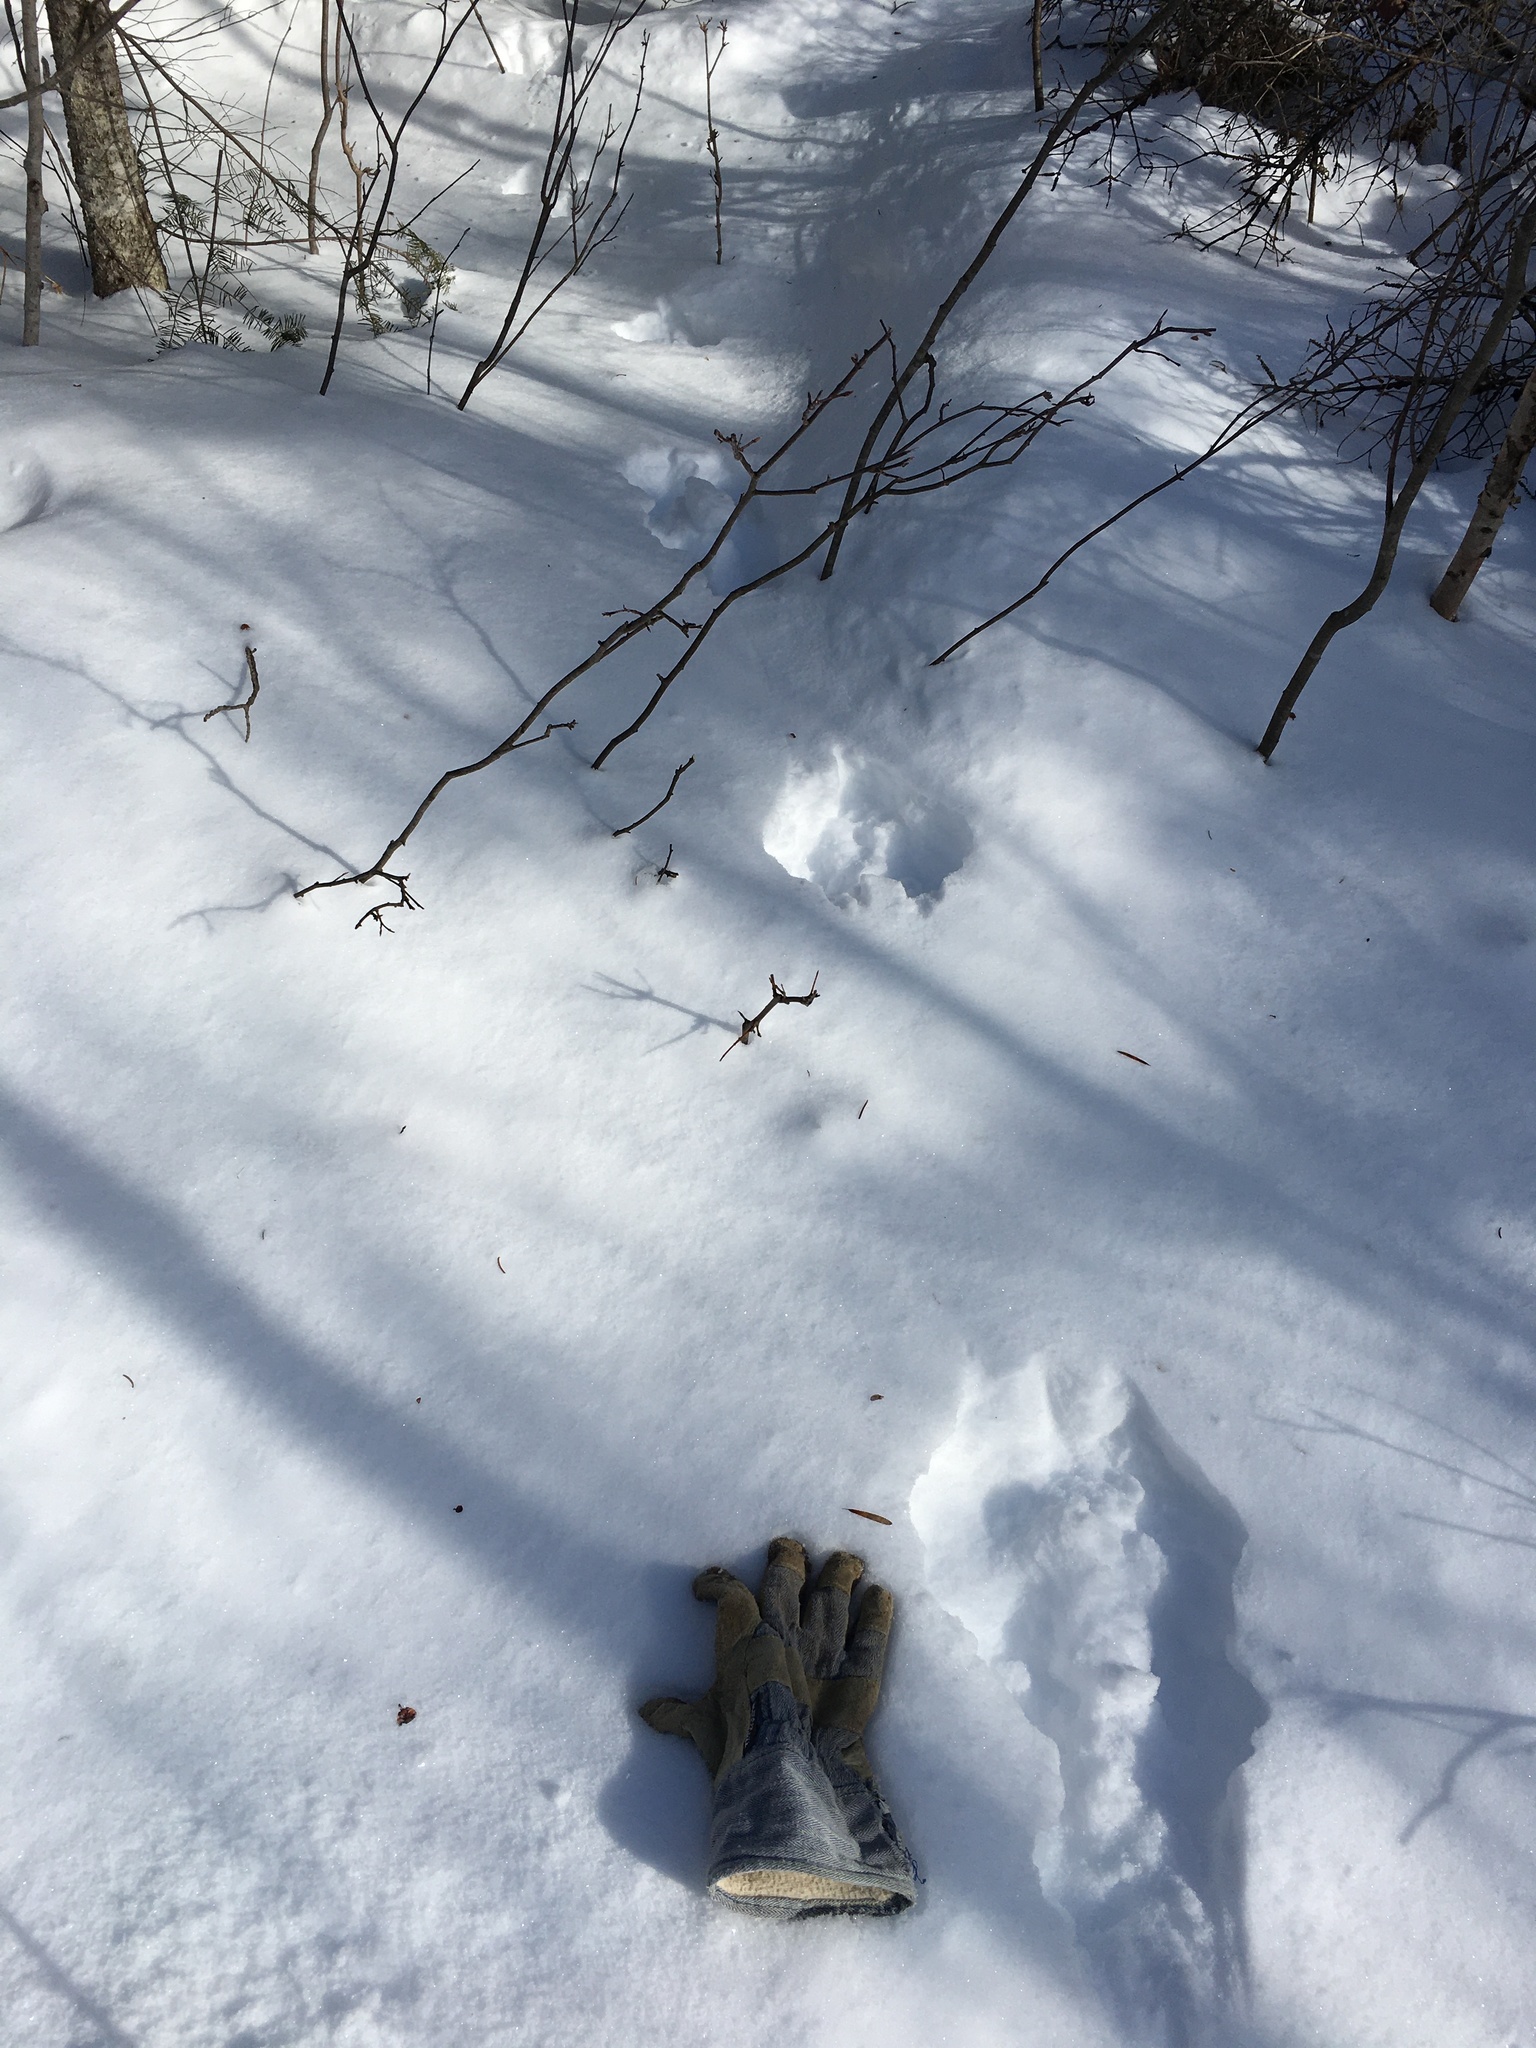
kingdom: Animalia
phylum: Chordata
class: Mammalia
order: Lagomorpha
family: Leporidae
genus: Lepus
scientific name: Lepus americanus
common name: Snowshoe hare
